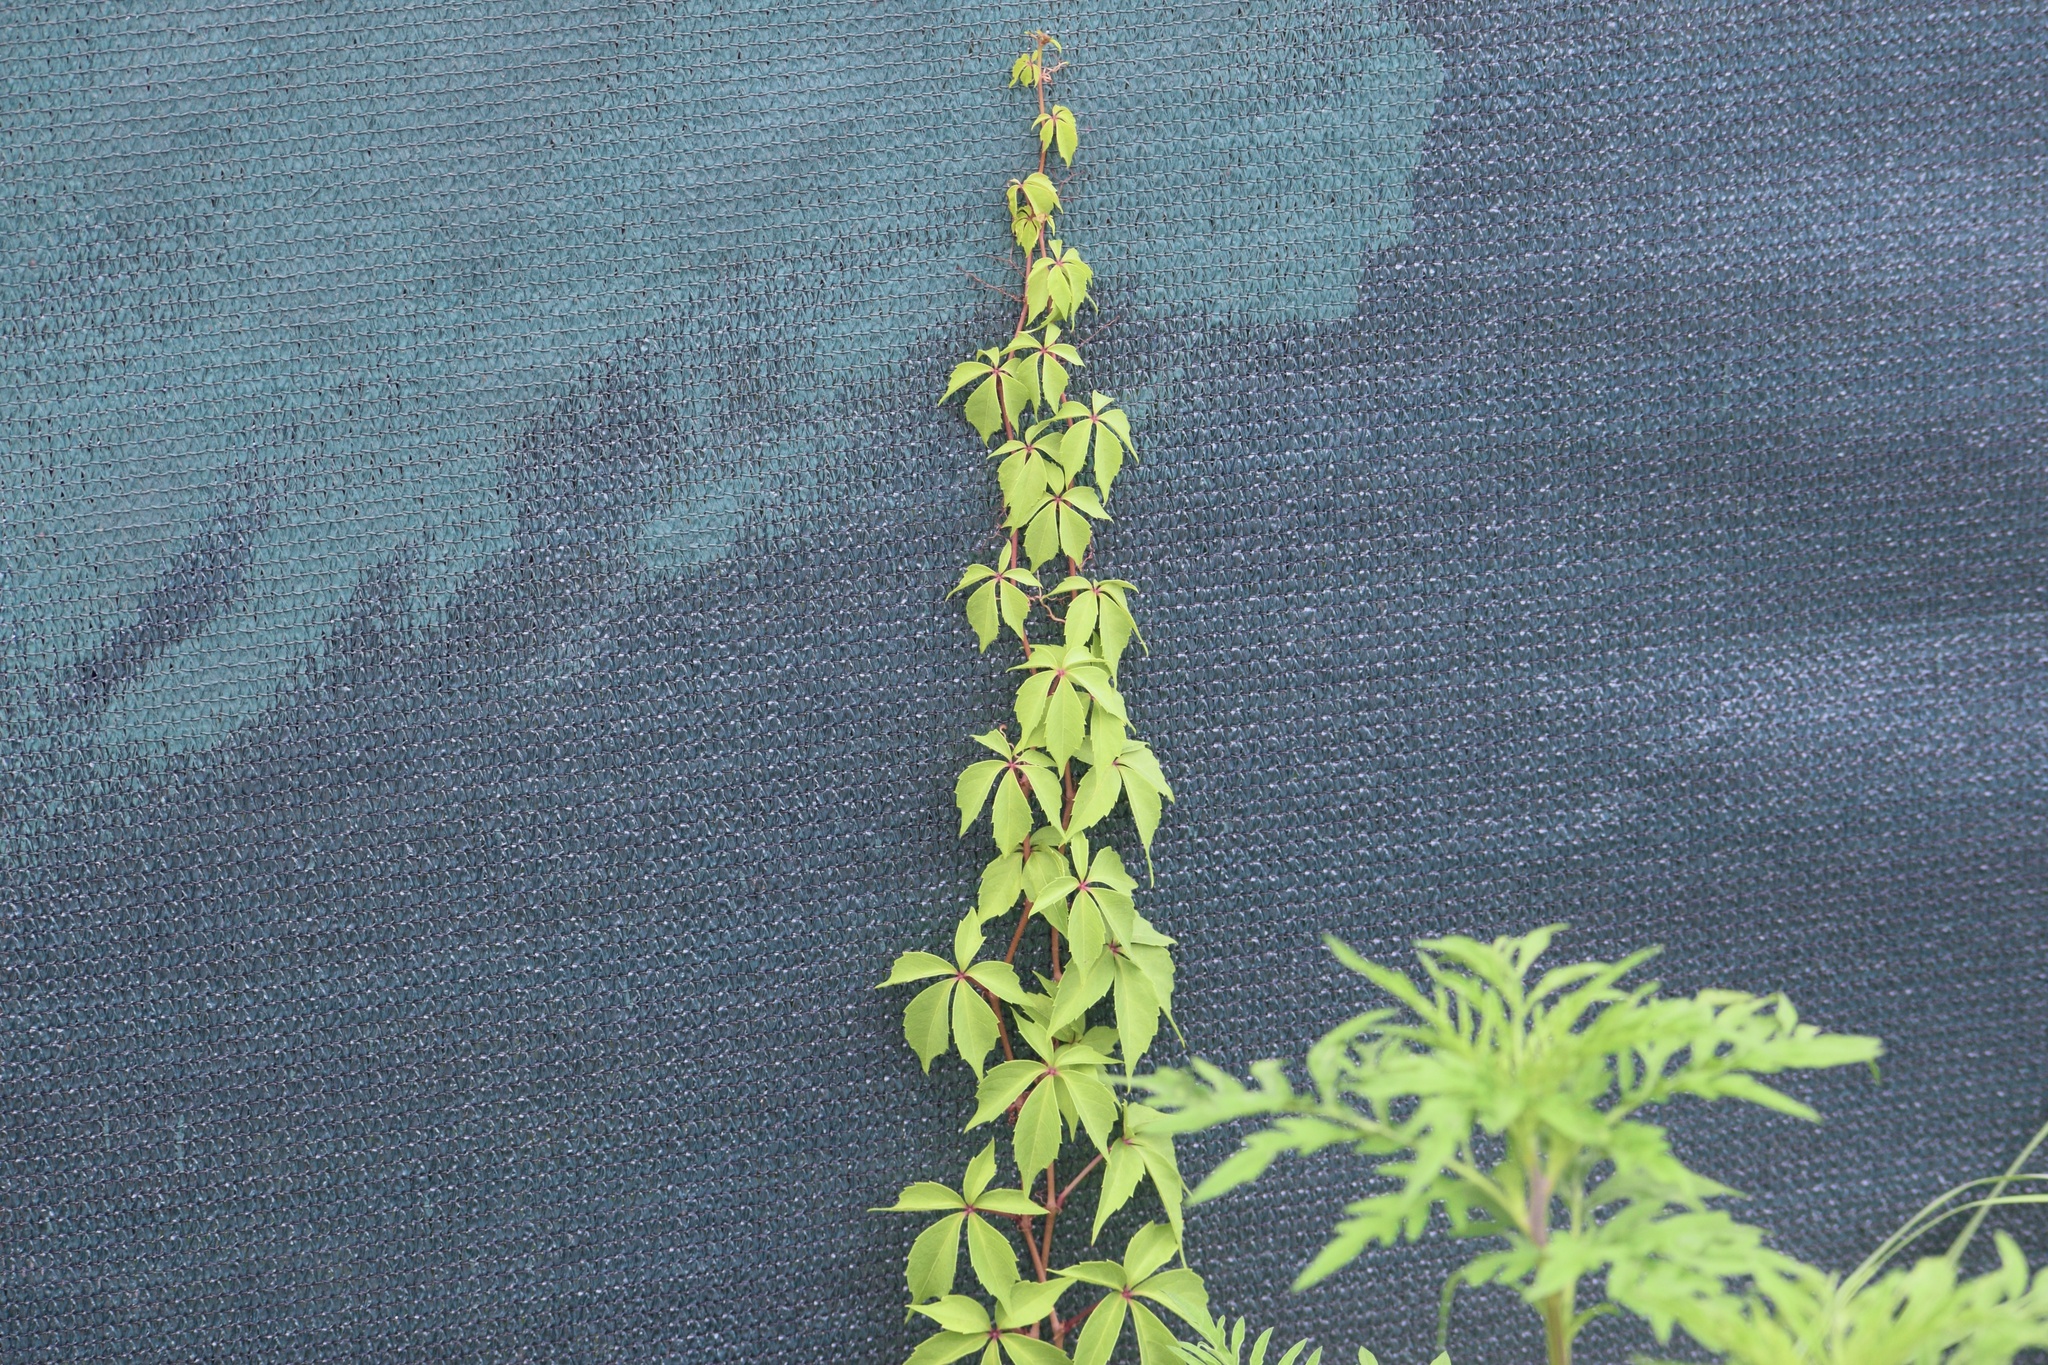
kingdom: Plantae
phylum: Tracheophyta
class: Magnoliopsida
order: Vitales
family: Vitaceae
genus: Parthenocissus
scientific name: Parthenocissus quinquefolia
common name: Virginia-creeper
